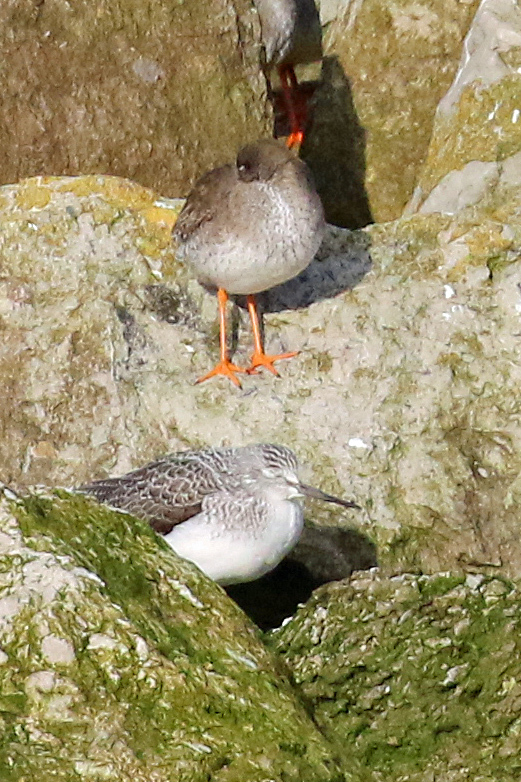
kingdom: Animalia
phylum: Chordata
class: Aves
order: Charadriiformes
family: Scolopacidae
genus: Tringa
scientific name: Tringa nebularia
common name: Common greenshank
